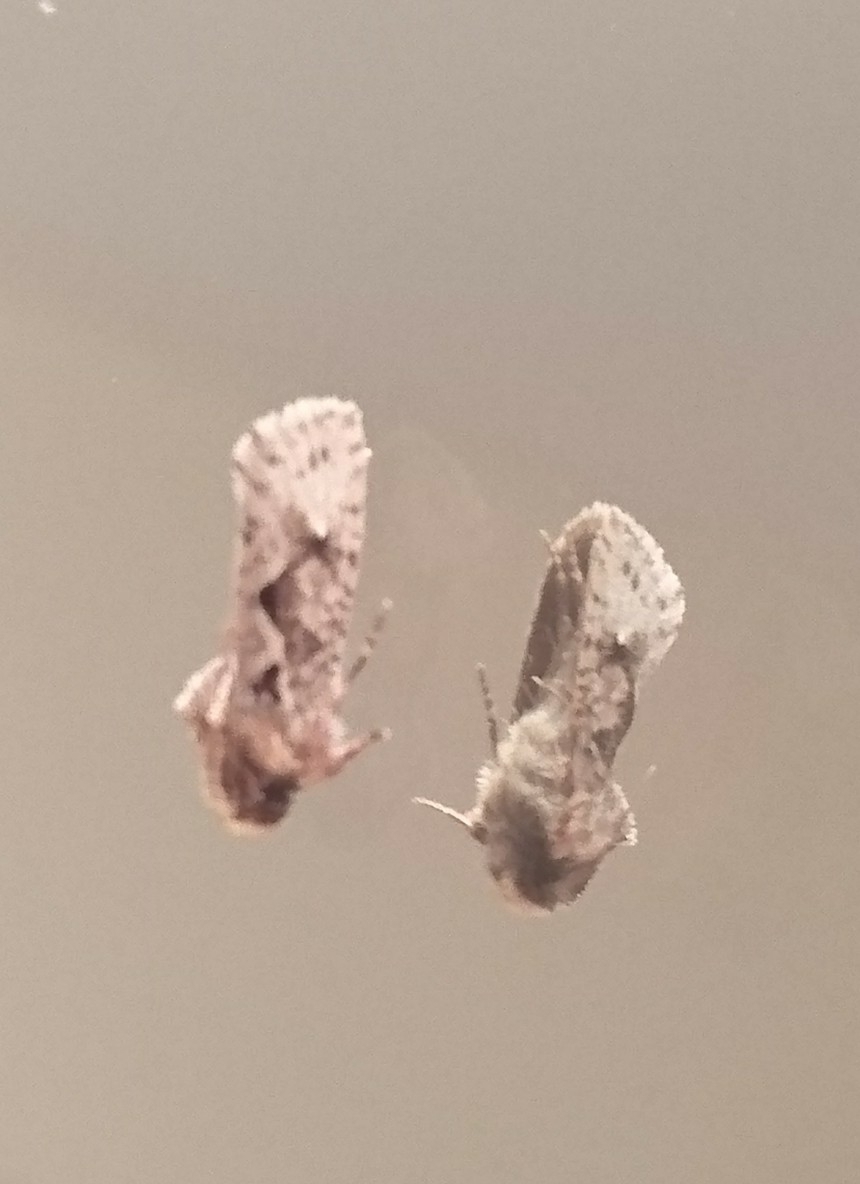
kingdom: Animalia
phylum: Arthropoda
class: Insecta
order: Lepidoptera
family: Tineidae
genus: Acrolophus
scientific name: Acrolophus walsinghami
